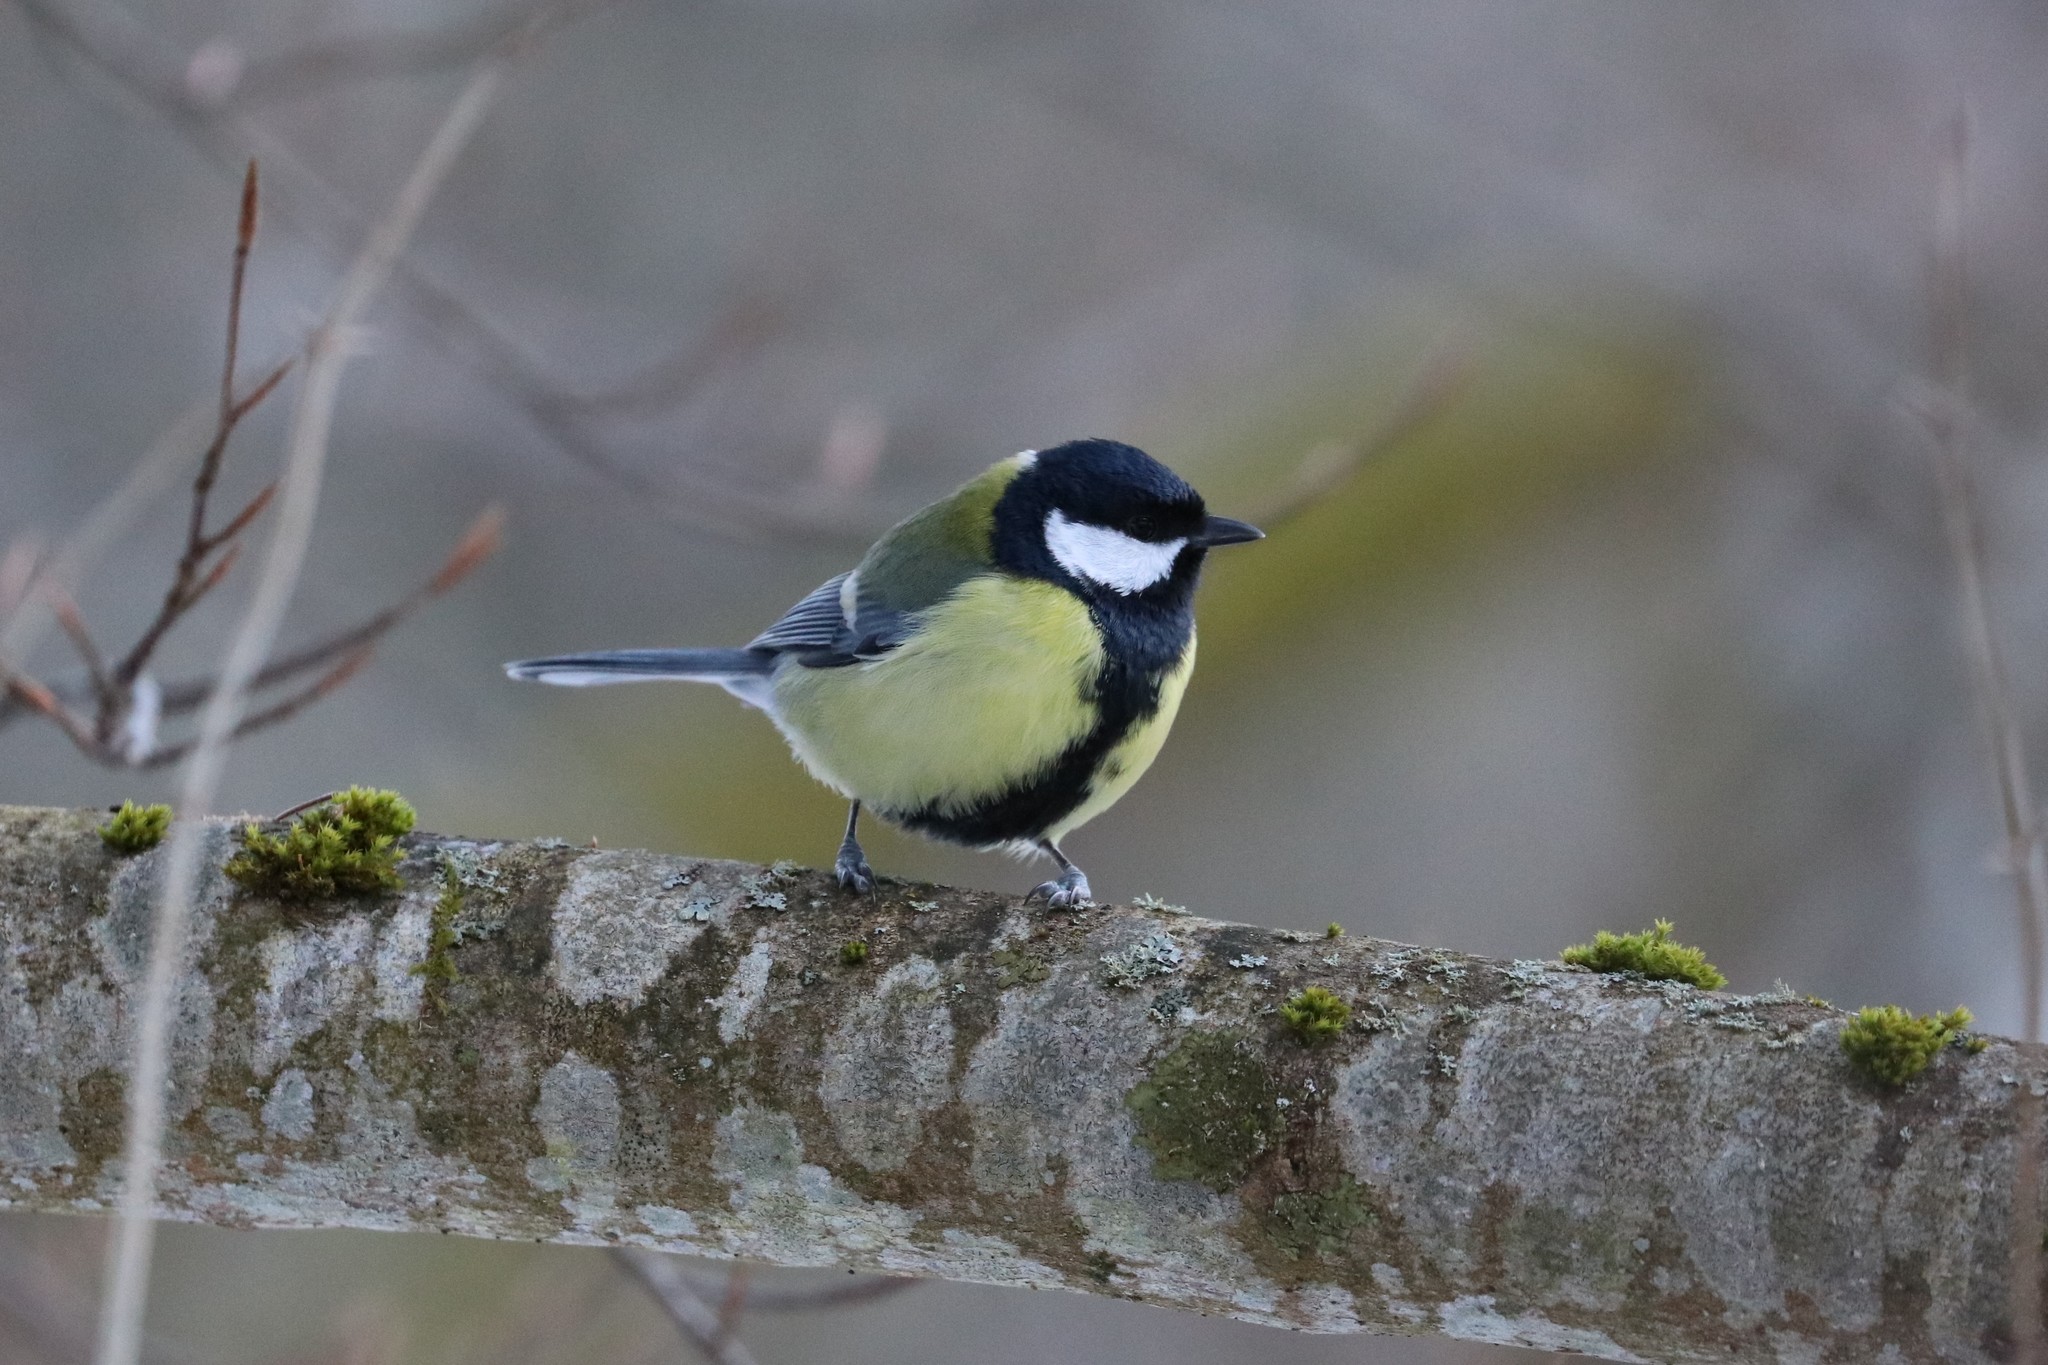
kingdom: Animalia
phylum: Chordata
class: Aves
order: Passeriformes
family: Paridae
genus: Parus
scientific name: Parus major
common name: Great tit
